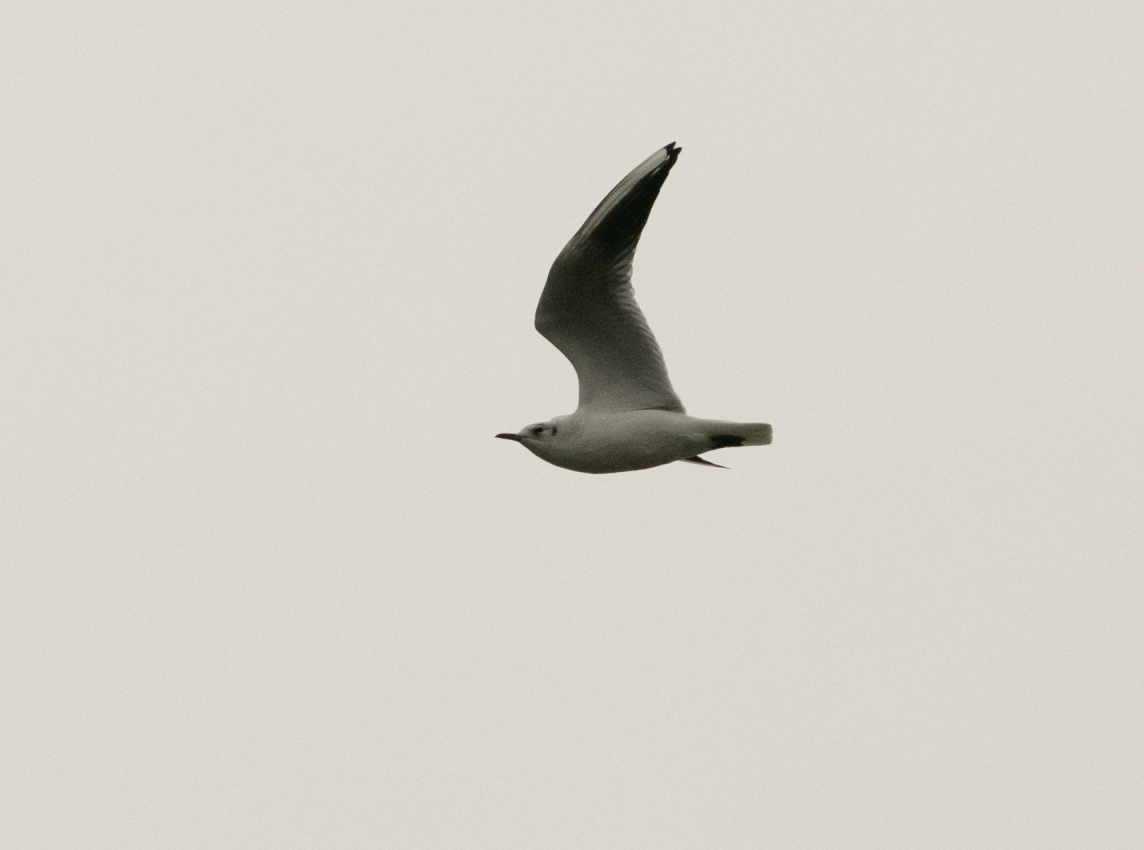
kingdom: Animalia
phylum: Chordata
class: Aves
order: Charadriiformes
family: Laridae
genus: Chroicocephalus
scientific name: Chroicocephalus ridibundus
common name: Black-headed gull
